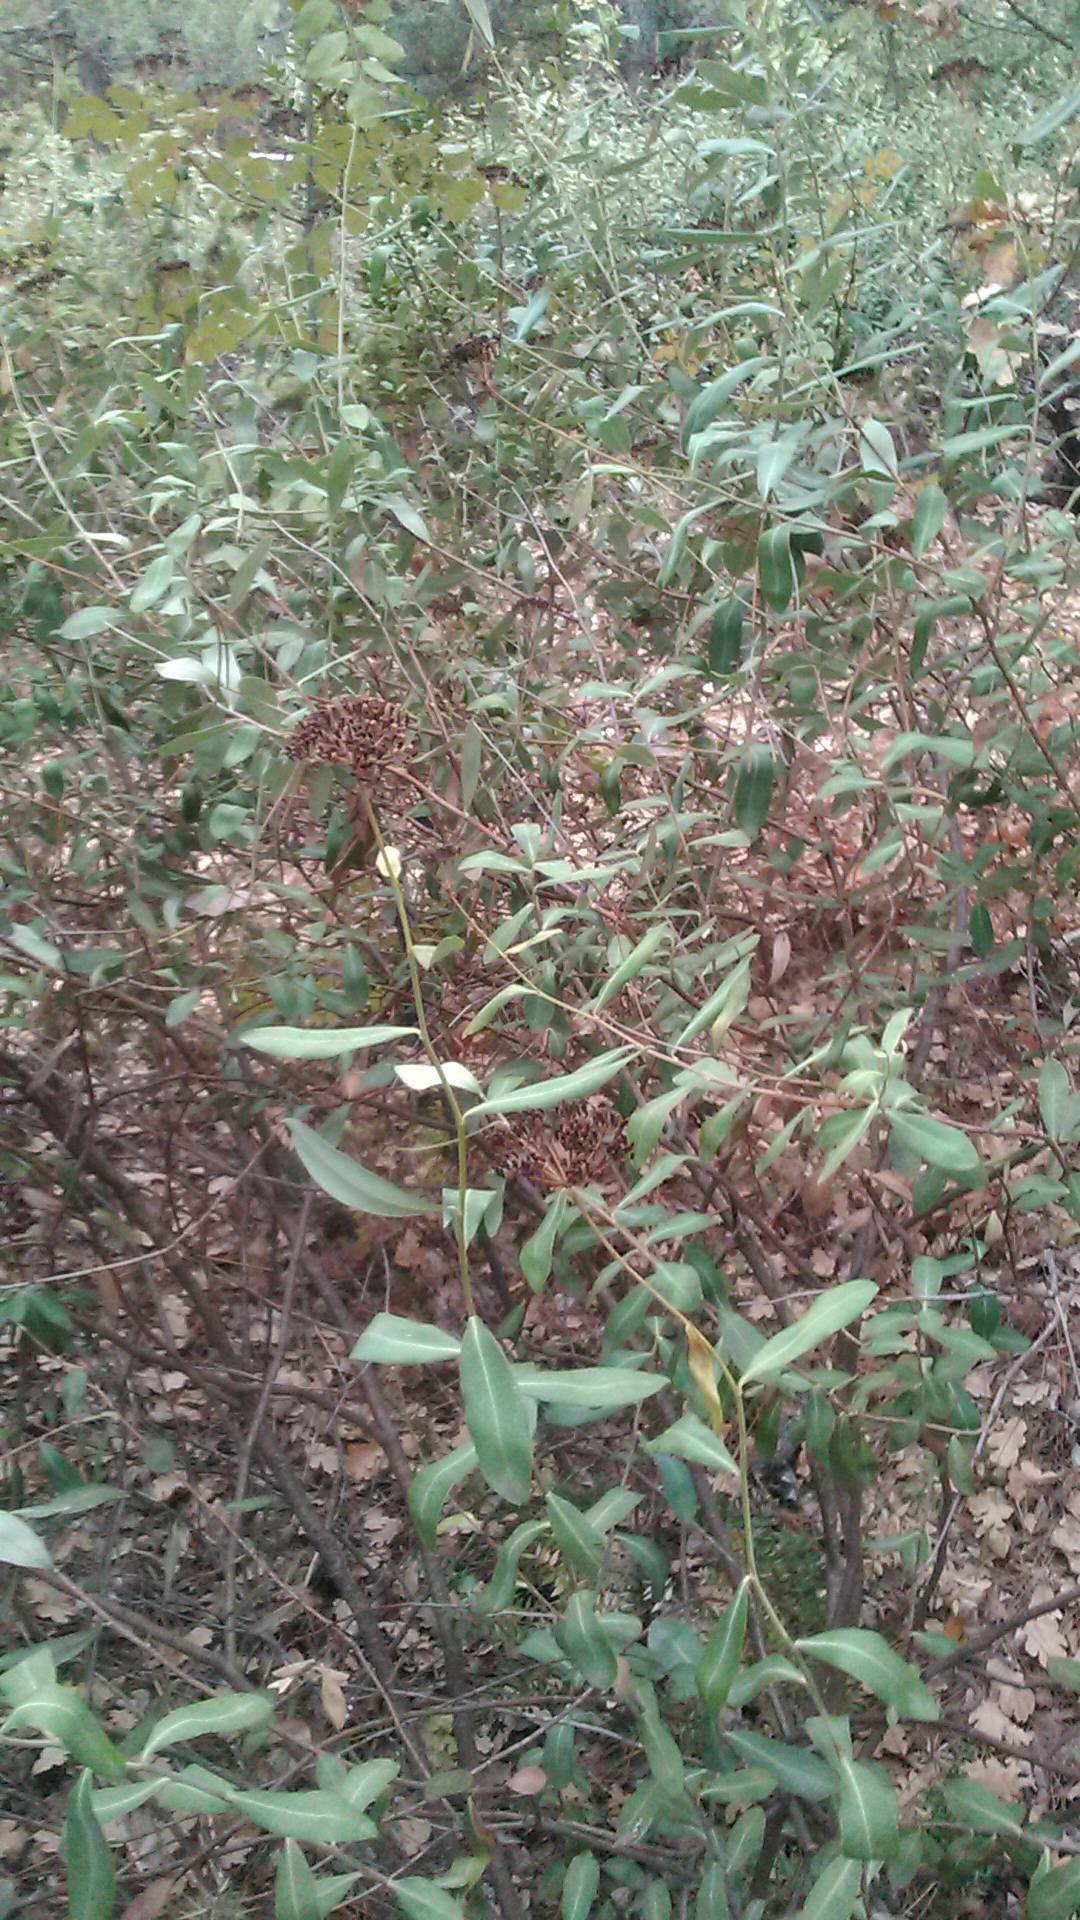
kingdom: Plantae
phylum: Tracheophyta
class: Magnoliopsida
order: Apiales
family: Apiaceae
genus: Bupleurum
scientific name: Bupleurum fruticosum
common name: Shrubby hare's-ear
